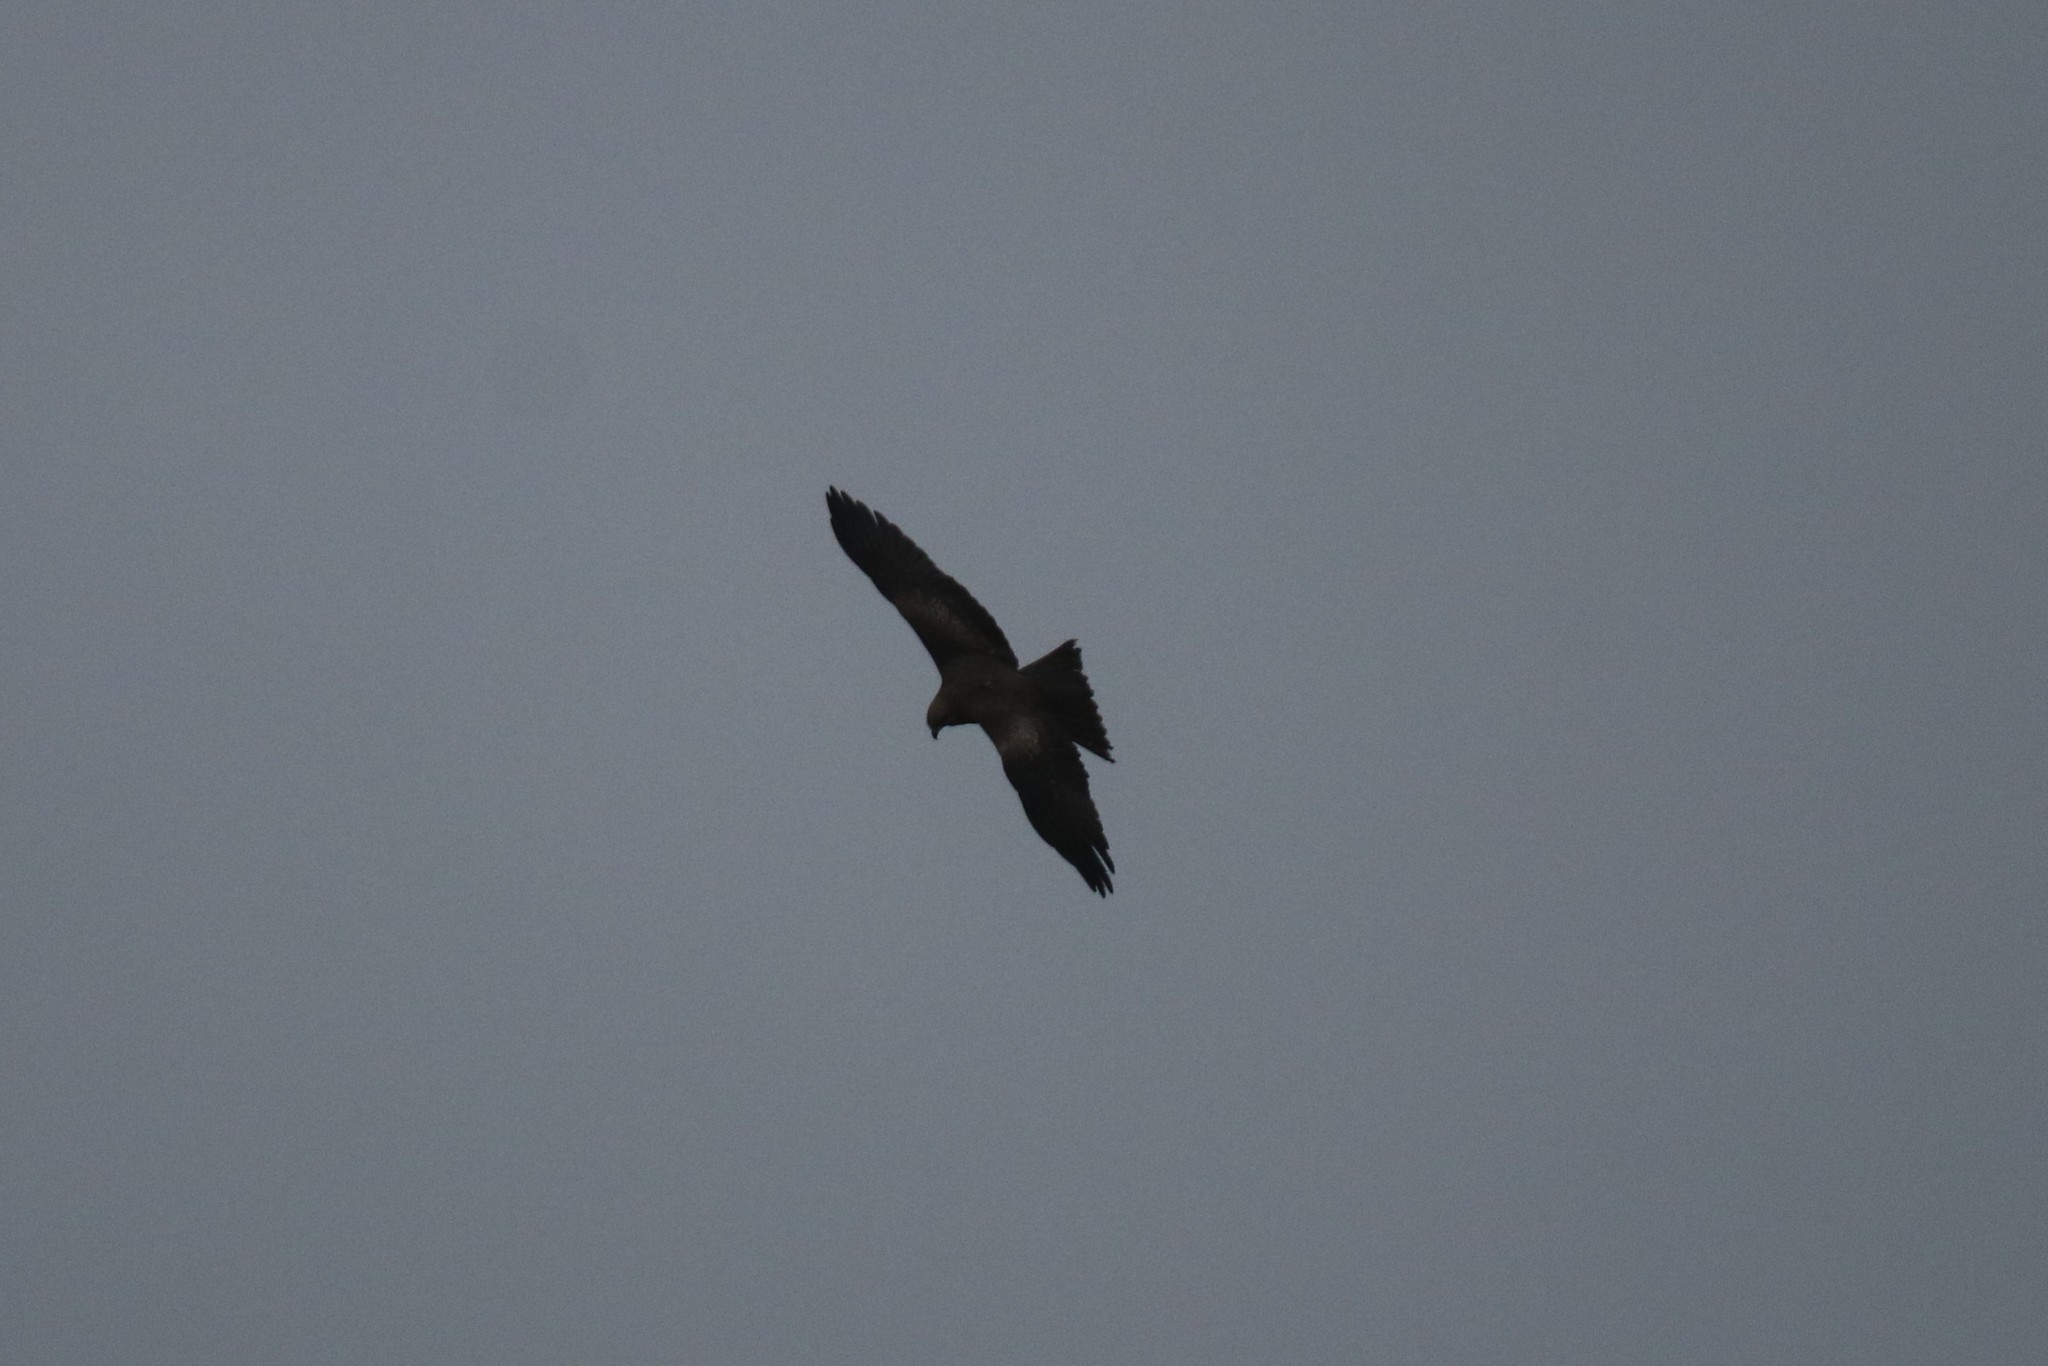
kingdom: Animalia
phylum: Chordata
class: Aves
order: Accipitriformes
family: Accipitridae
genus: Milvus
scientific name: Milvus migrans
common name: Black kite
